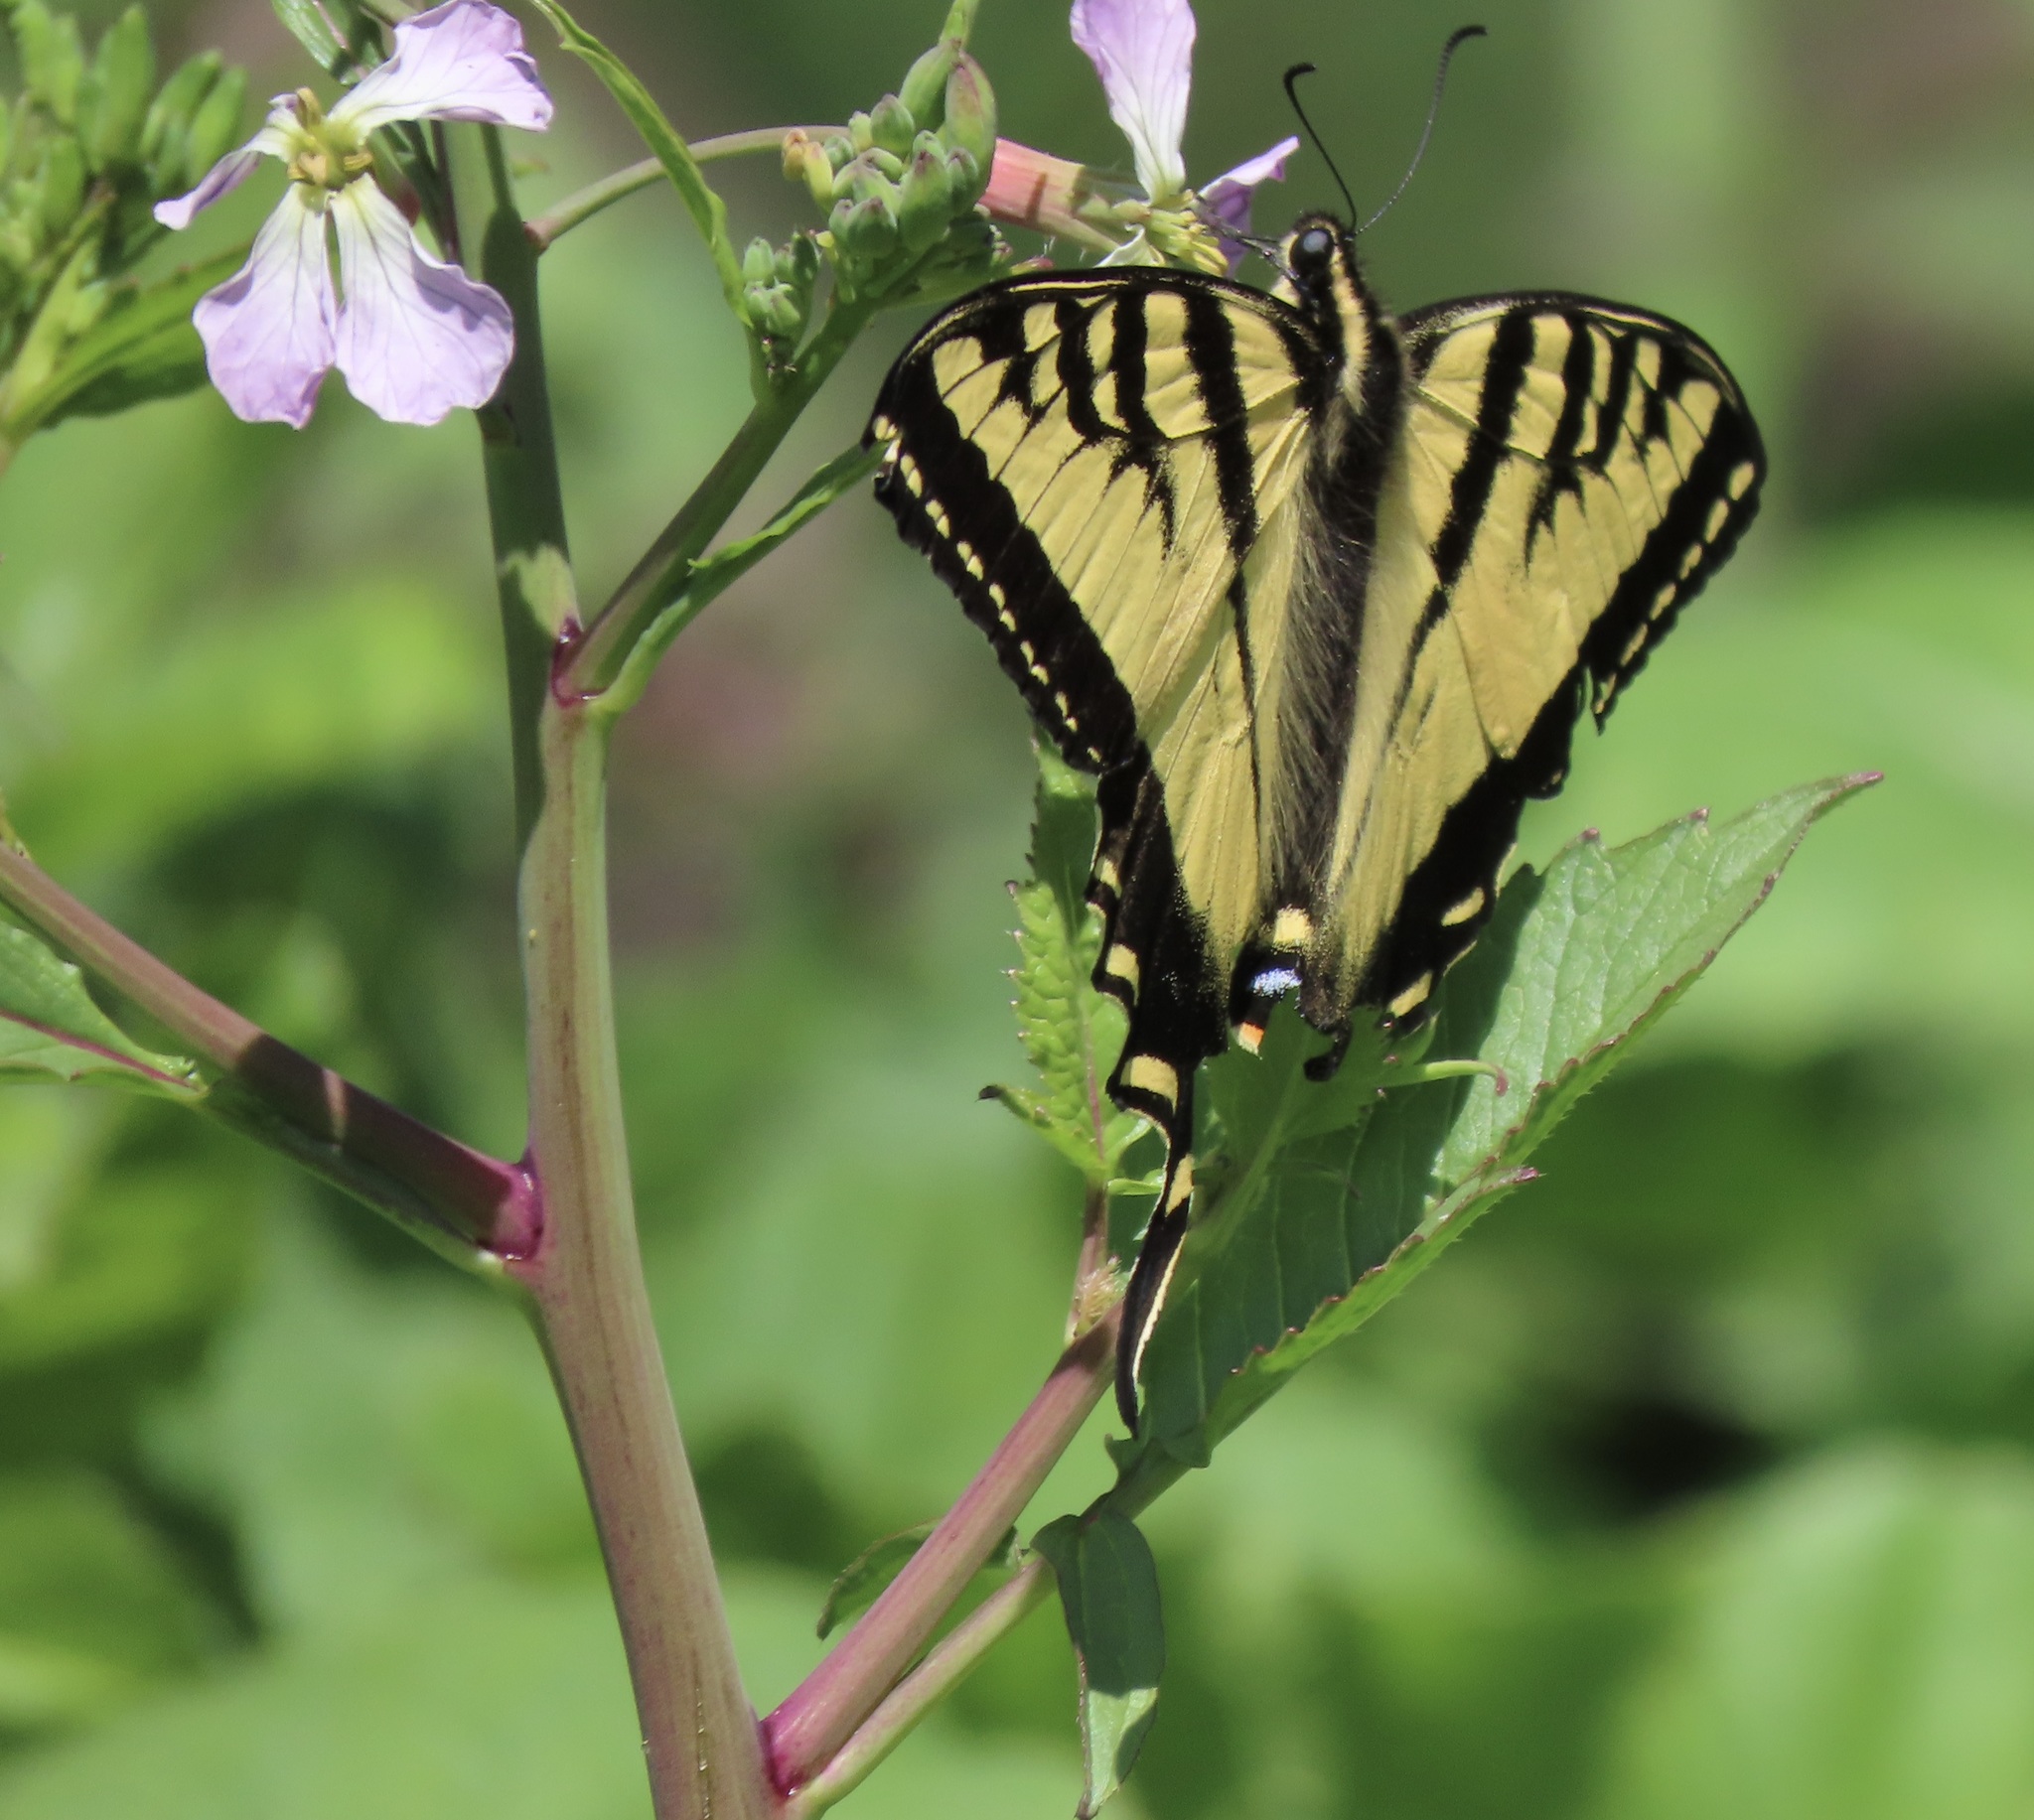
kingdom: Animalia
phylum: Arthropoda
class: Insecta
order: Lepidoptera
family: Papilionidae
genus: Papilio
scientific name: Papilio rutulus
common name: Western tiger swallowtail
